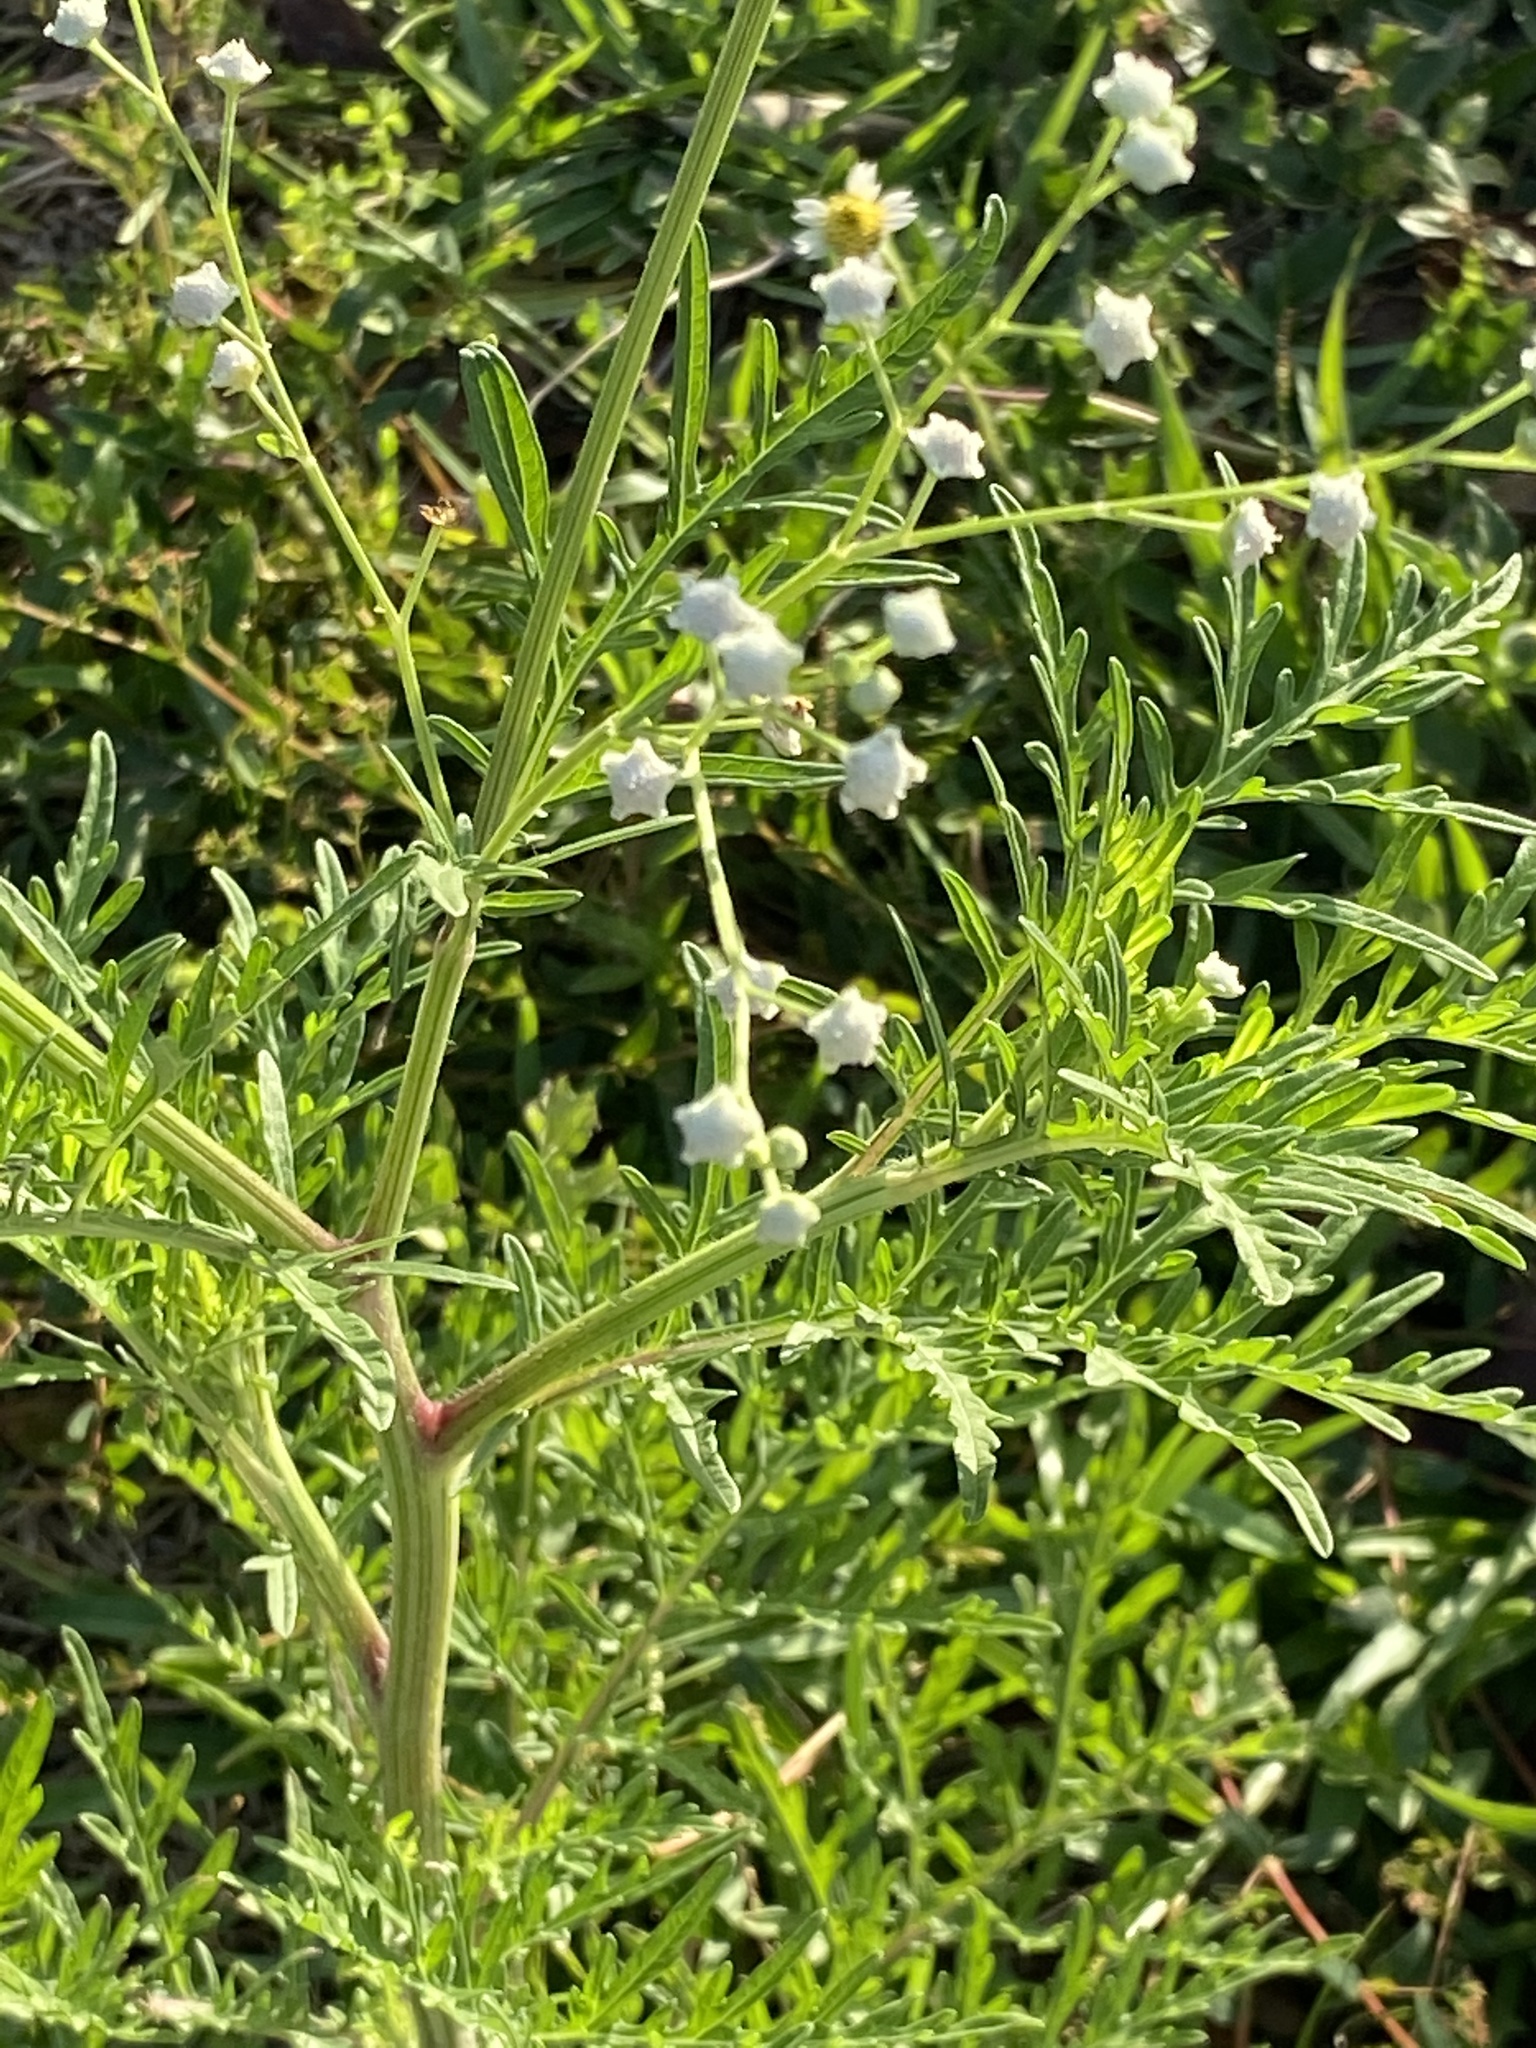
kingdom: Plantae
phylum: Tracheophyta
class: Magnoliopsida
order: Asterales
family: Asteraceae
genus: Parthenium
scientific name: Parthenium hysterophorus
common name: Santa maria feverfew
